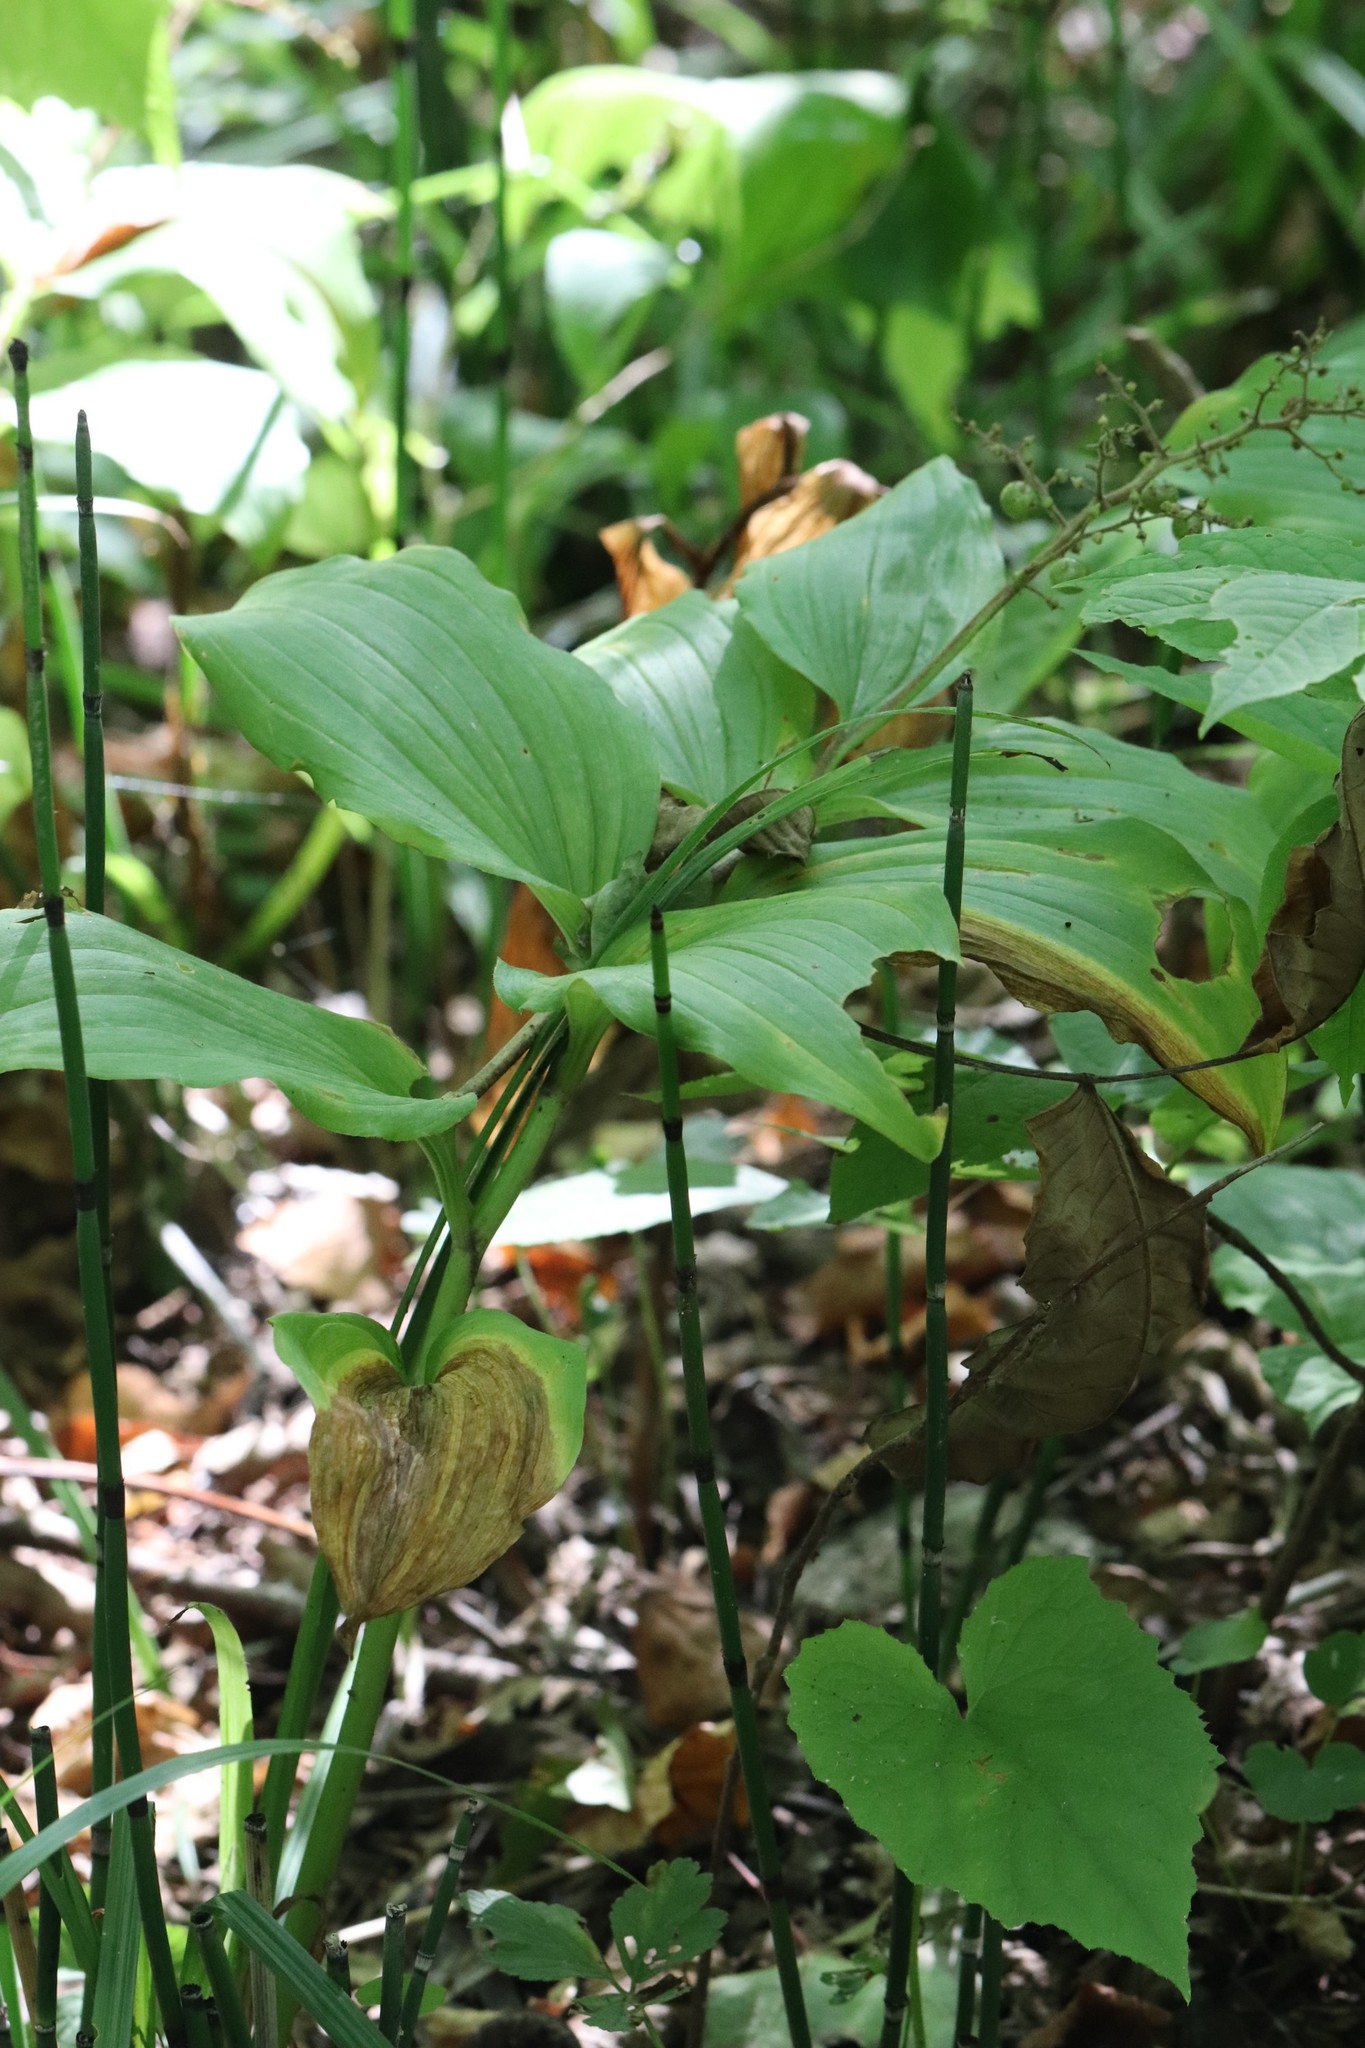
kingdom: Plantae
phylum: Tracheophyta
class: Liliopsida
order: Asparagales
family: Asparagaceae
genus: Maianthemum
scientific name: Maianthemum japonicum
